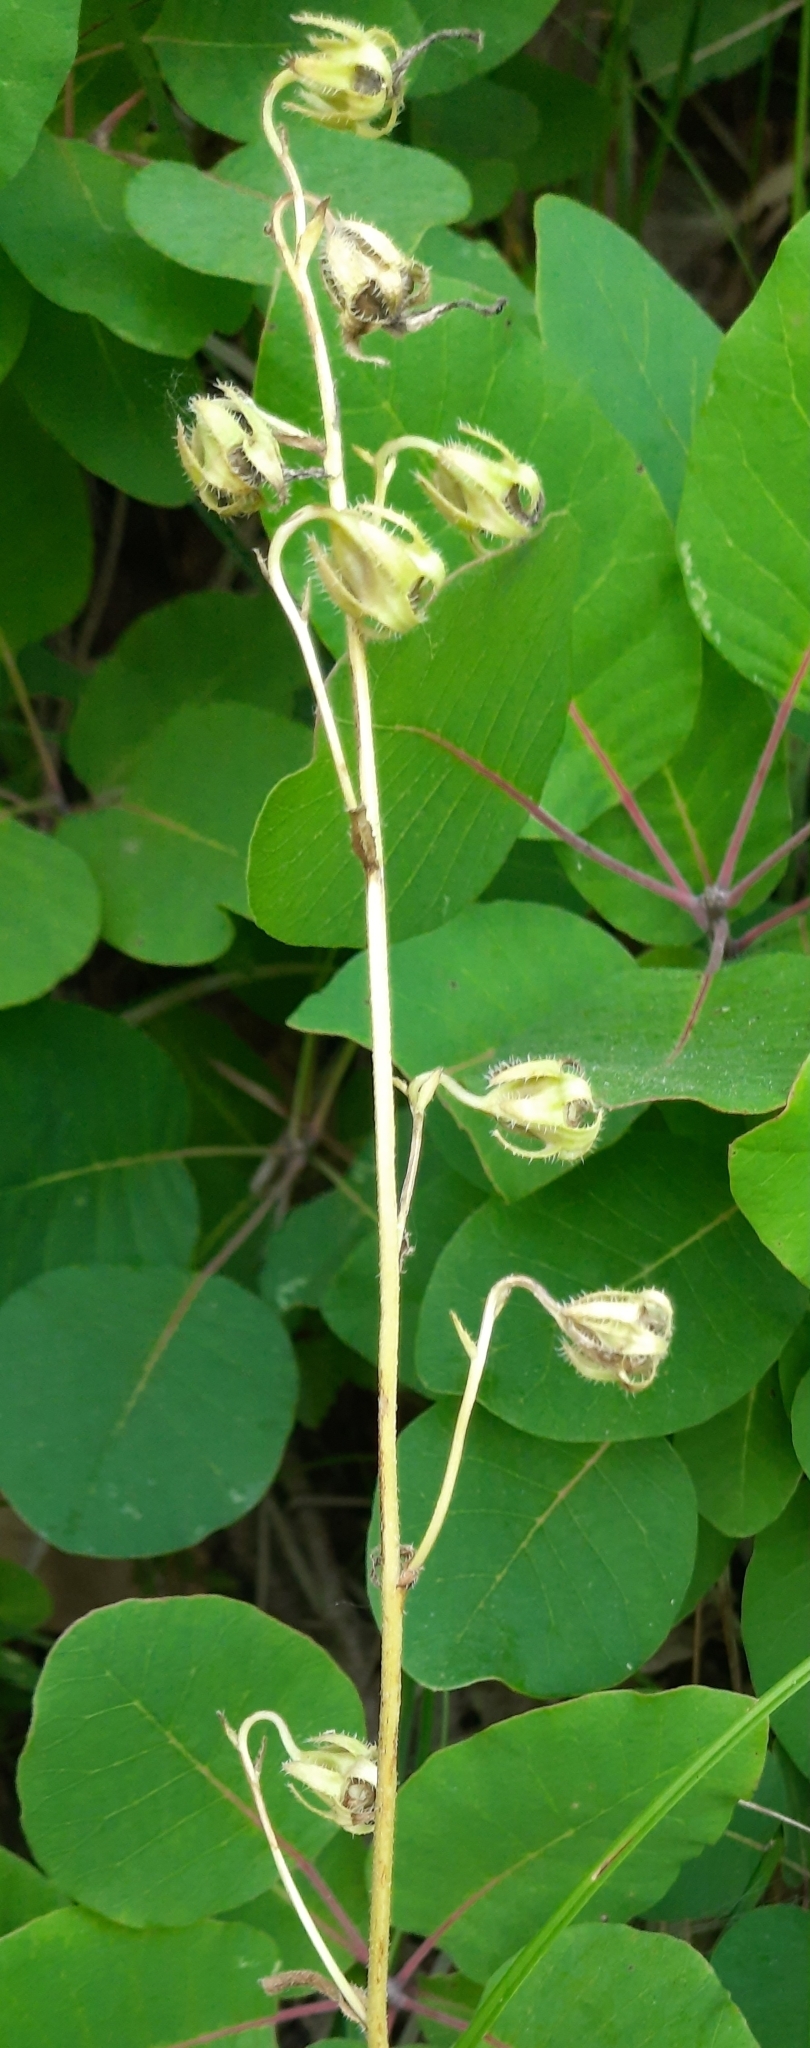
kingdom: Plantae
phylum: Tracheophyta
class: Magnoliopsida
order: Asterales
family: Campanulaceae
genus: Campanula
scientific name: Campanula komarovii
